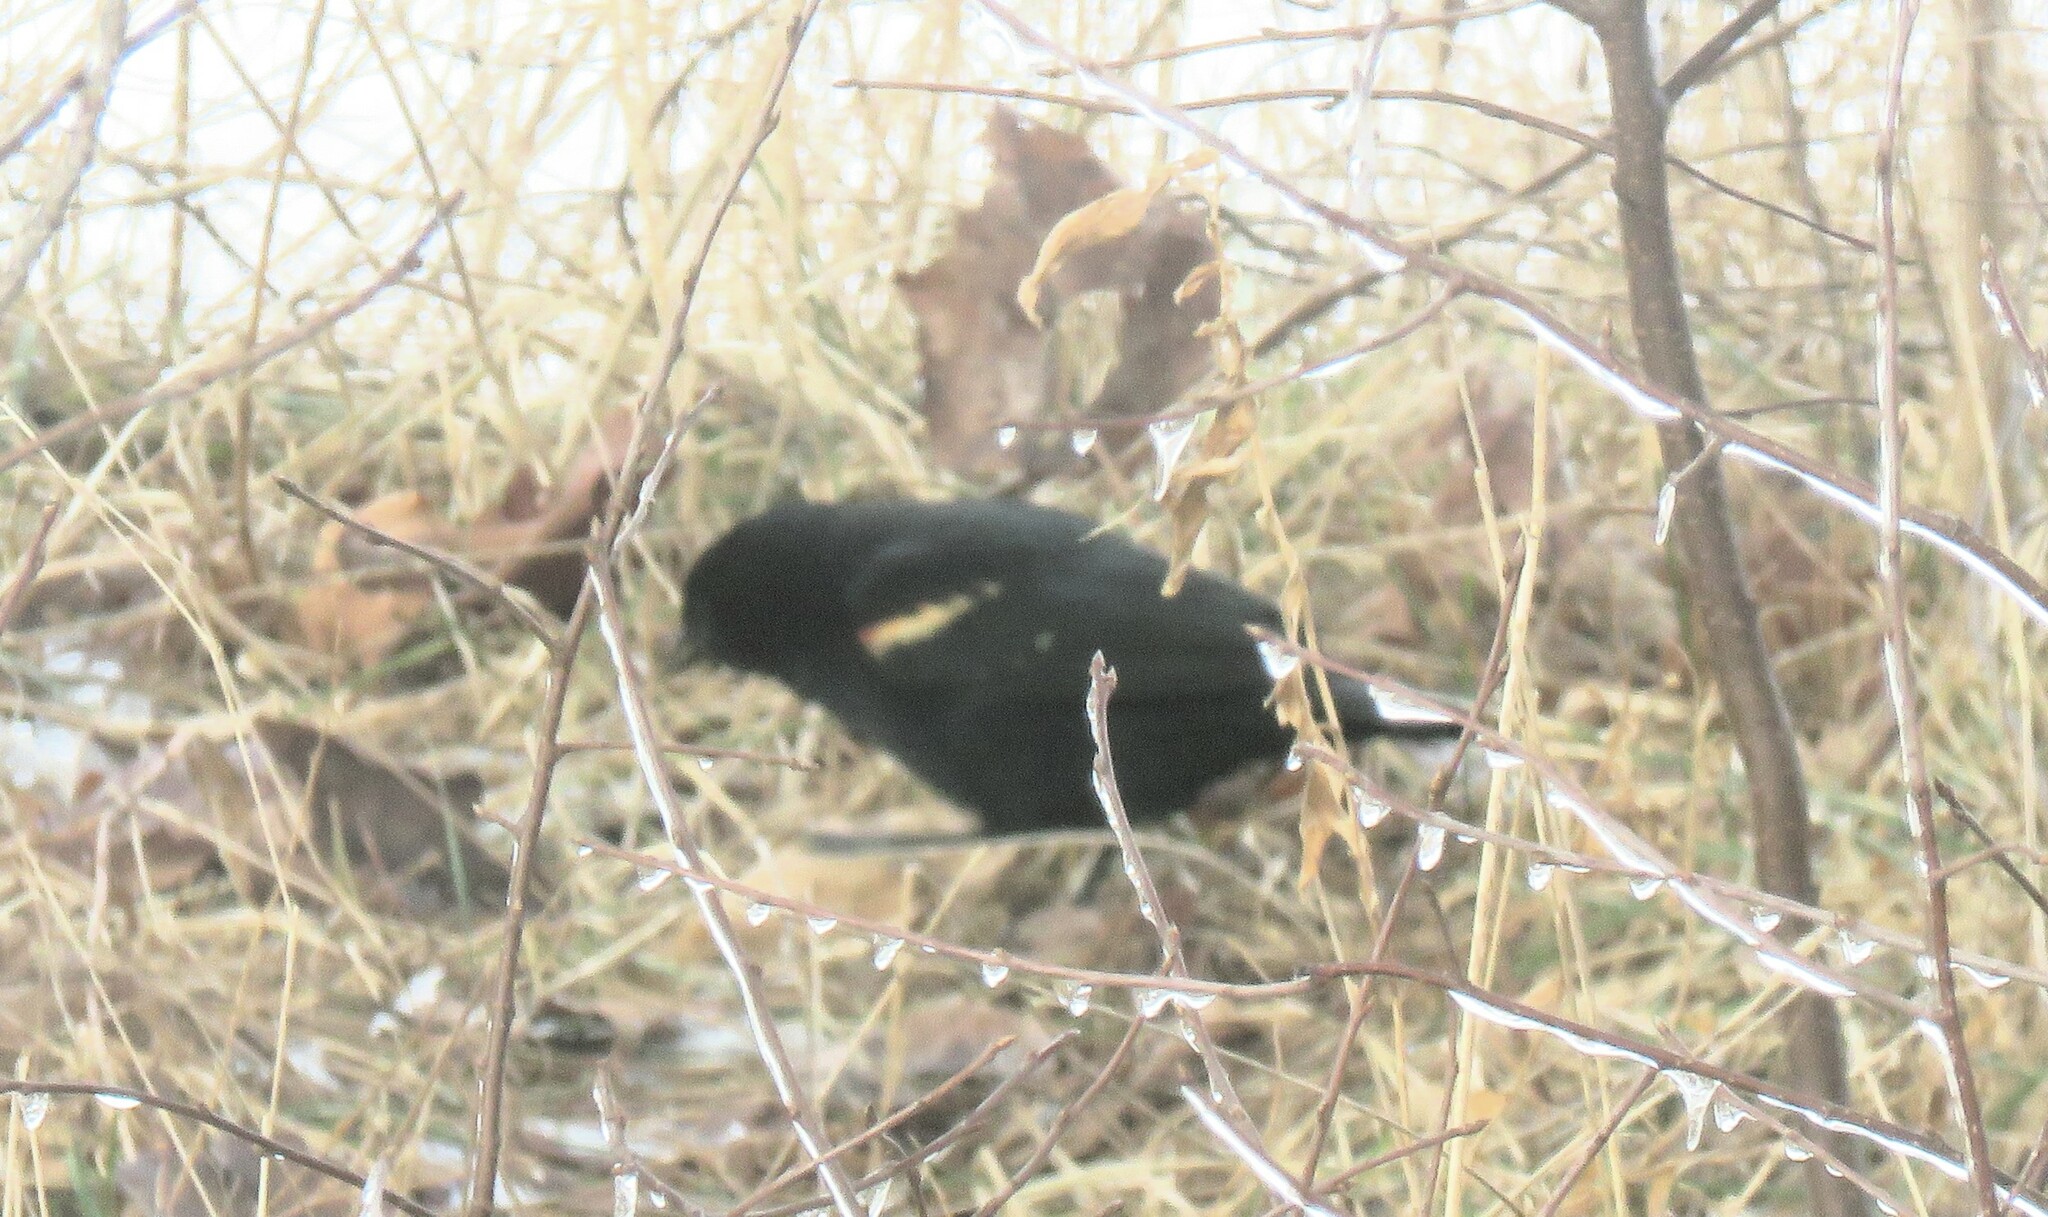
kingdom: Animalia
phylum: Chordata
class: Aves
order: Passeriformes
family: Icteridae
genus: Agelaius
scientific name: Agelaius phoeniceus
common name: Red-winged blackbird
